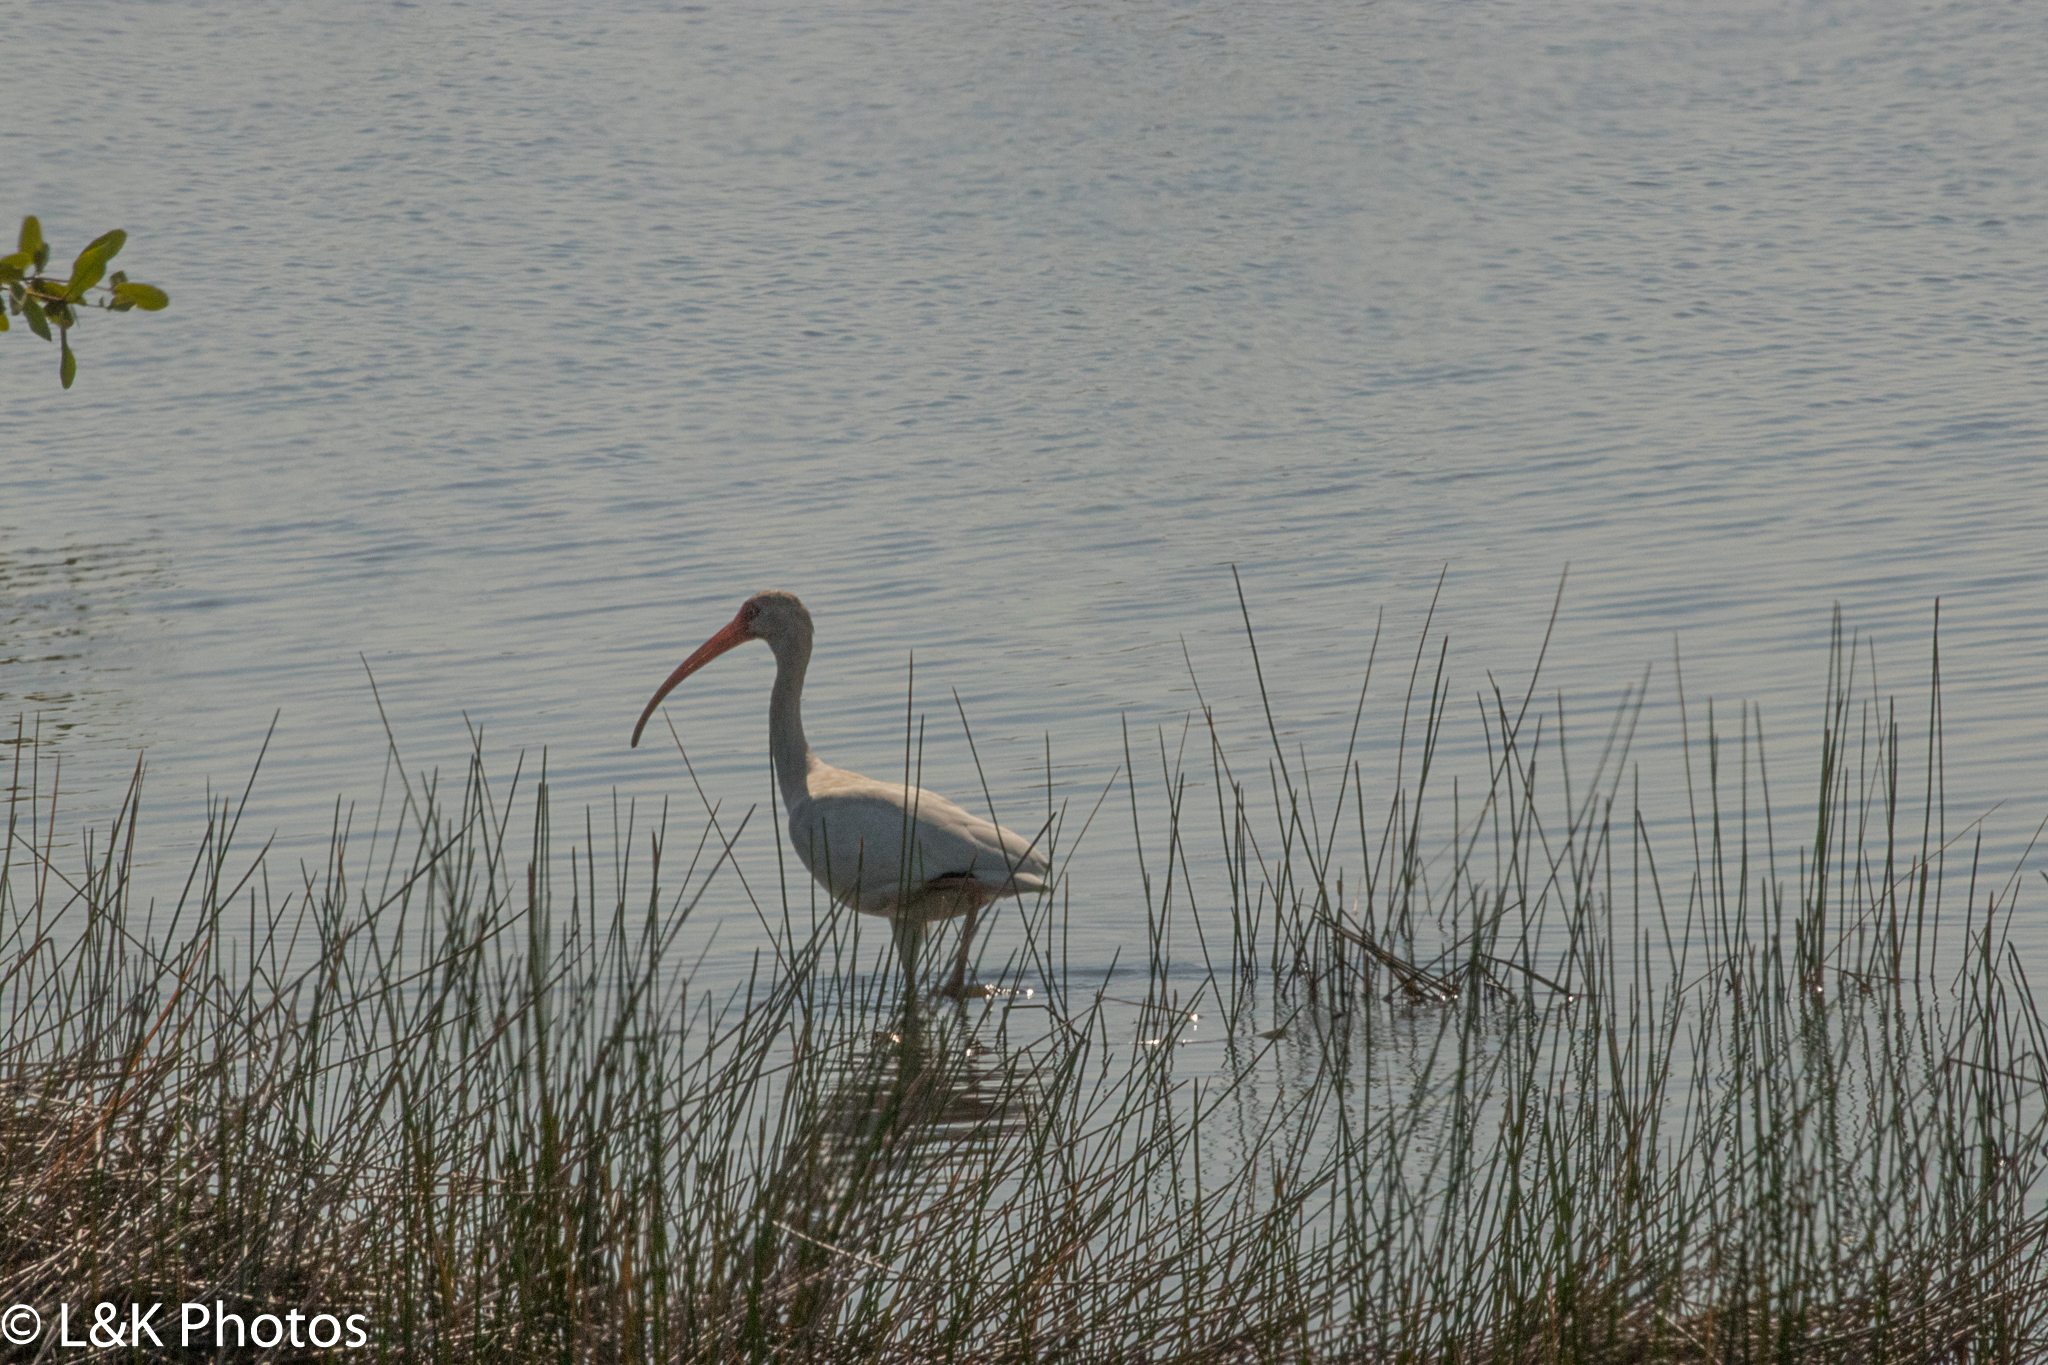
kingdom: Animalia
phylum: Chordata
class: Aves
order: Pelecaniformes
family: Threskiornithidae
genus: Eudocimus
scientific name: Eudocimus albus
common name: White ibis
